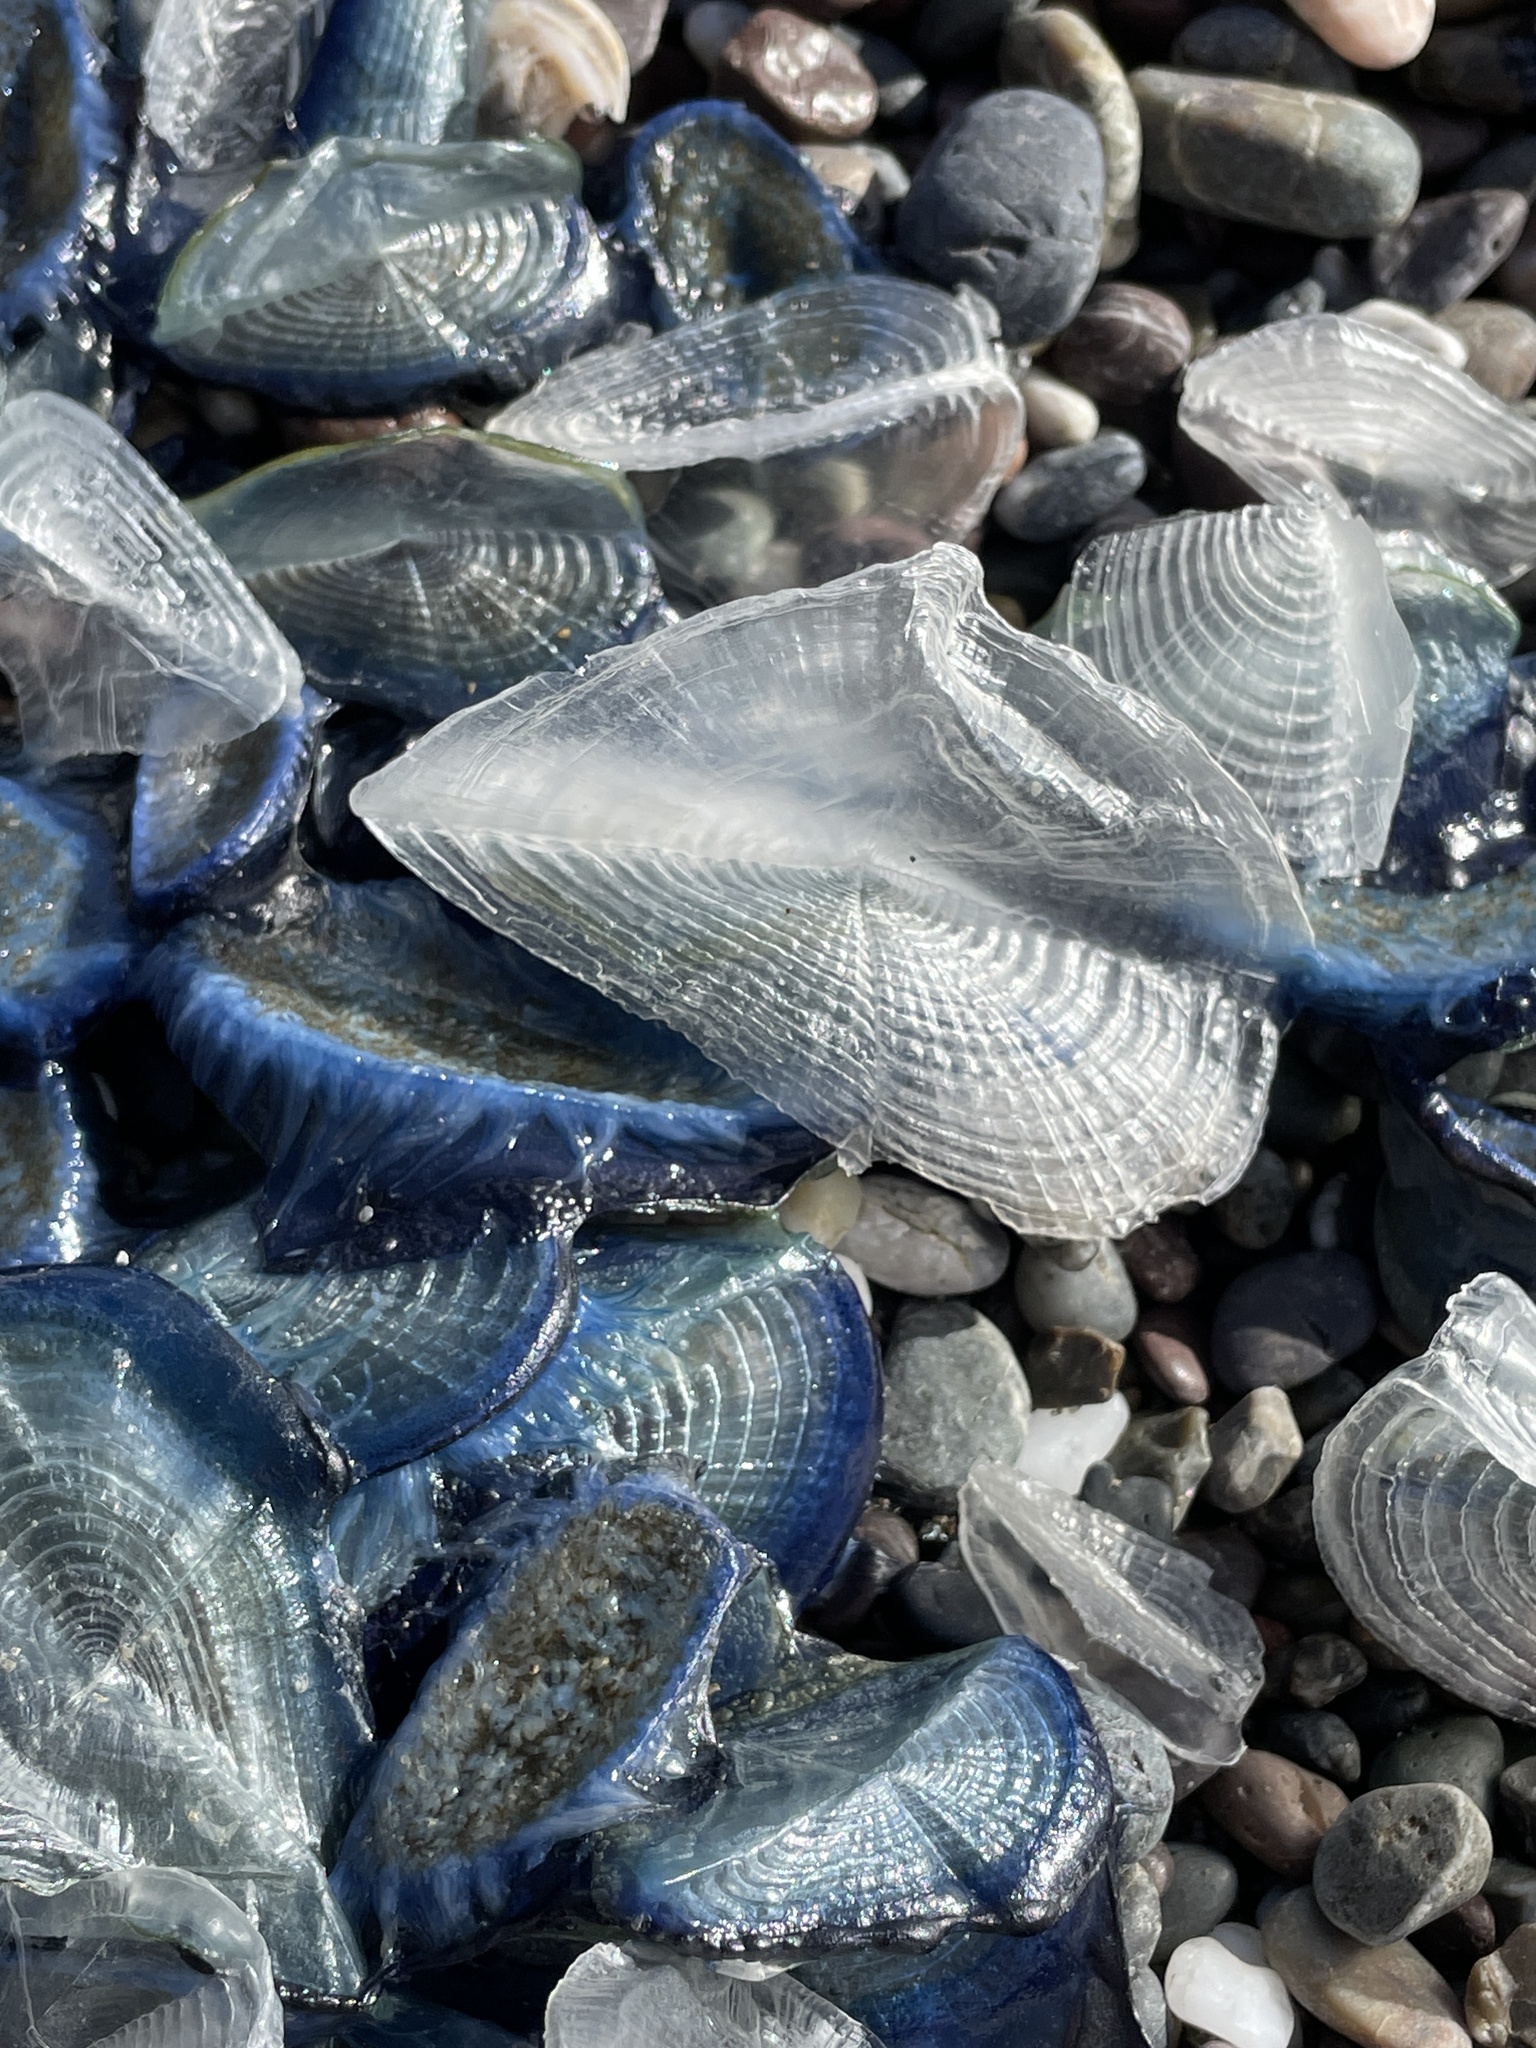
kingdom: Animalia
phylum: Cnidaria
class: Hydrozoa
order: Anthoathecata
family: Porpitidae
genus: Velella
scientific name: Velella velella
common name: By-the-wind-sailor
